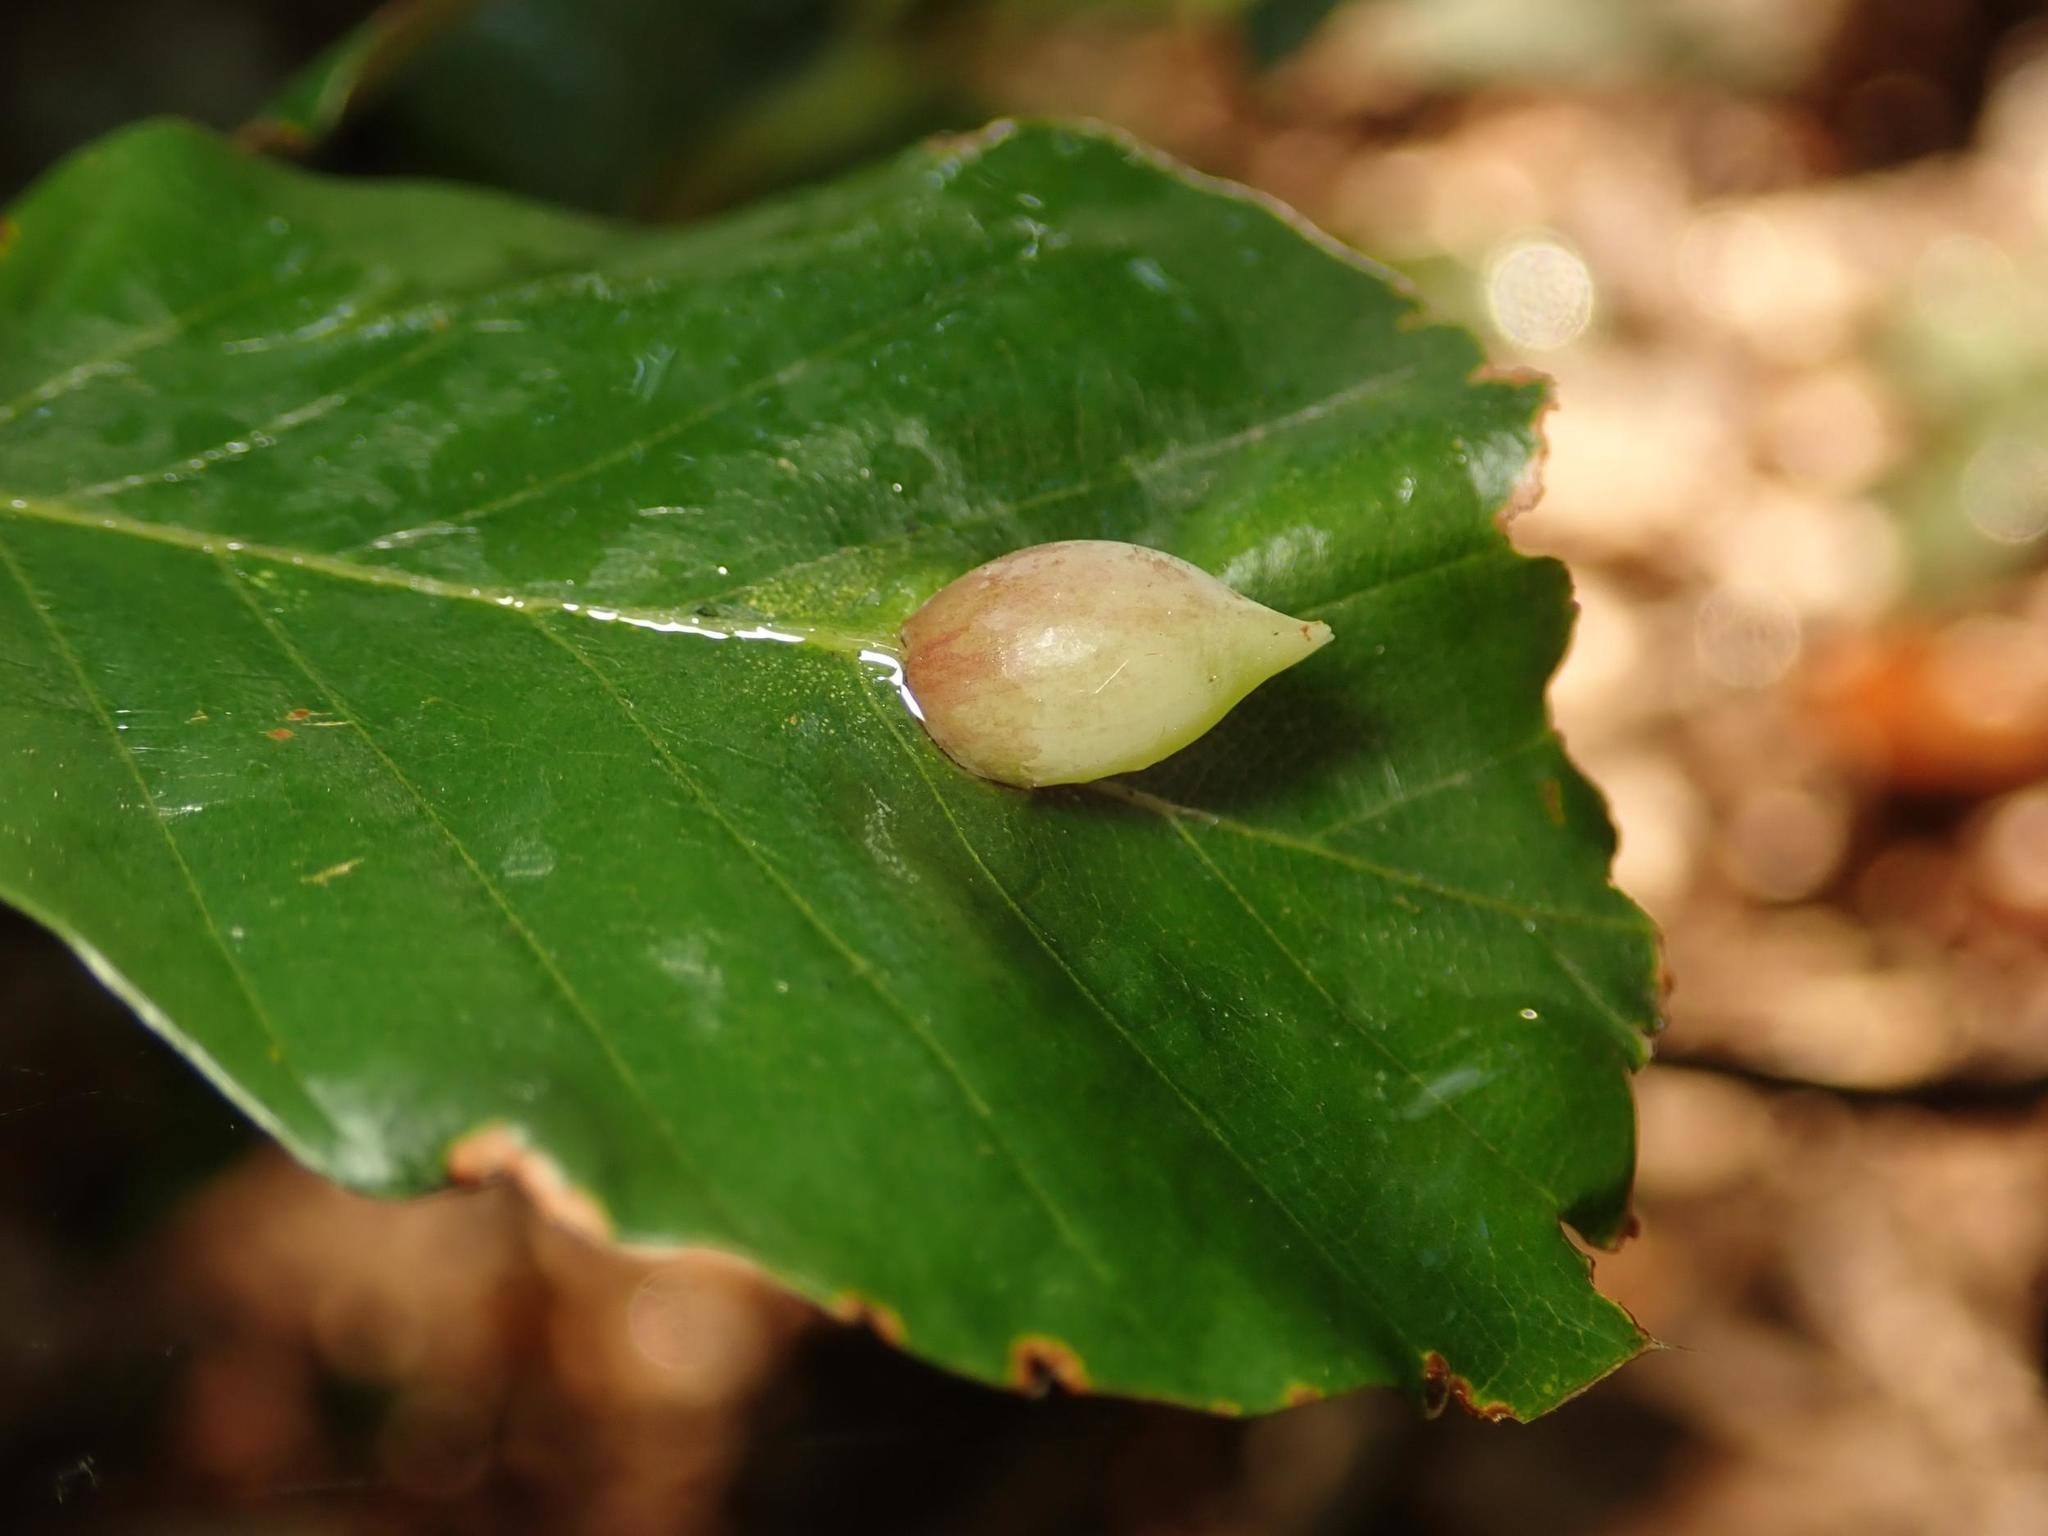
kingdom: Animalia
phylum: Arthropoda
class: Insecta
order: Diptera
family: Cecidomyiidae
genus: Mikiola
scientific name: Mikiola fagi
